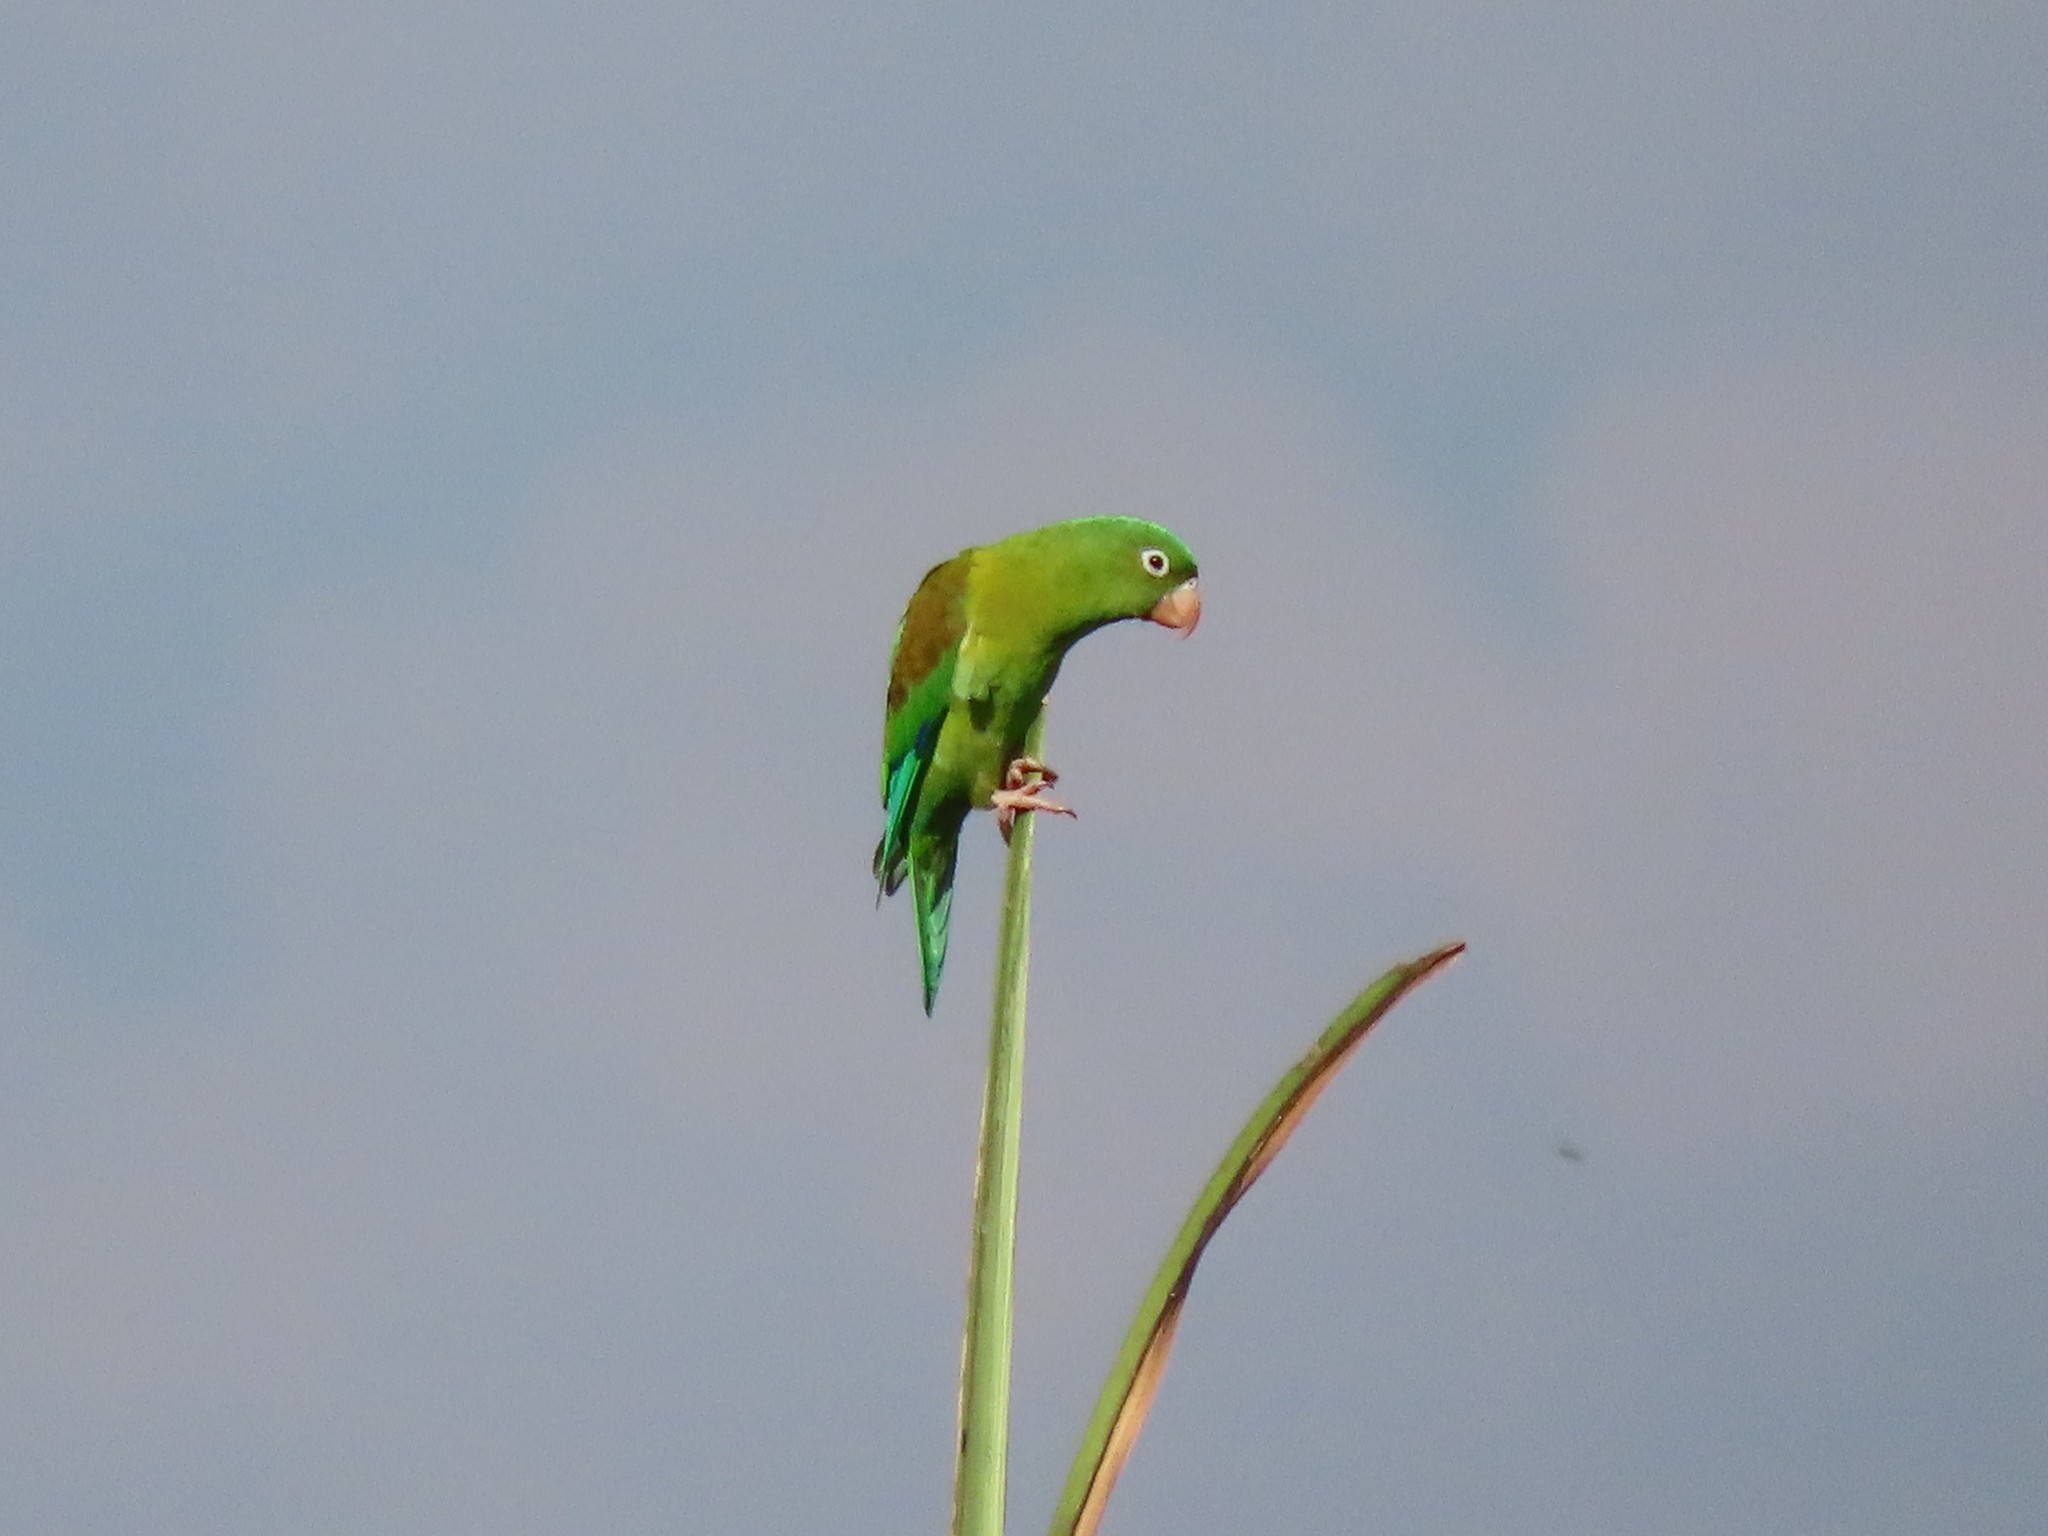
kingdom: Animalia
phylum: Chordata
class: Aves
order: Psittaciformes
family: Psittacidae
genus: Brotogeris
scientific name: Brotogeris jugularis
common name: Orange-chinned parakeet
